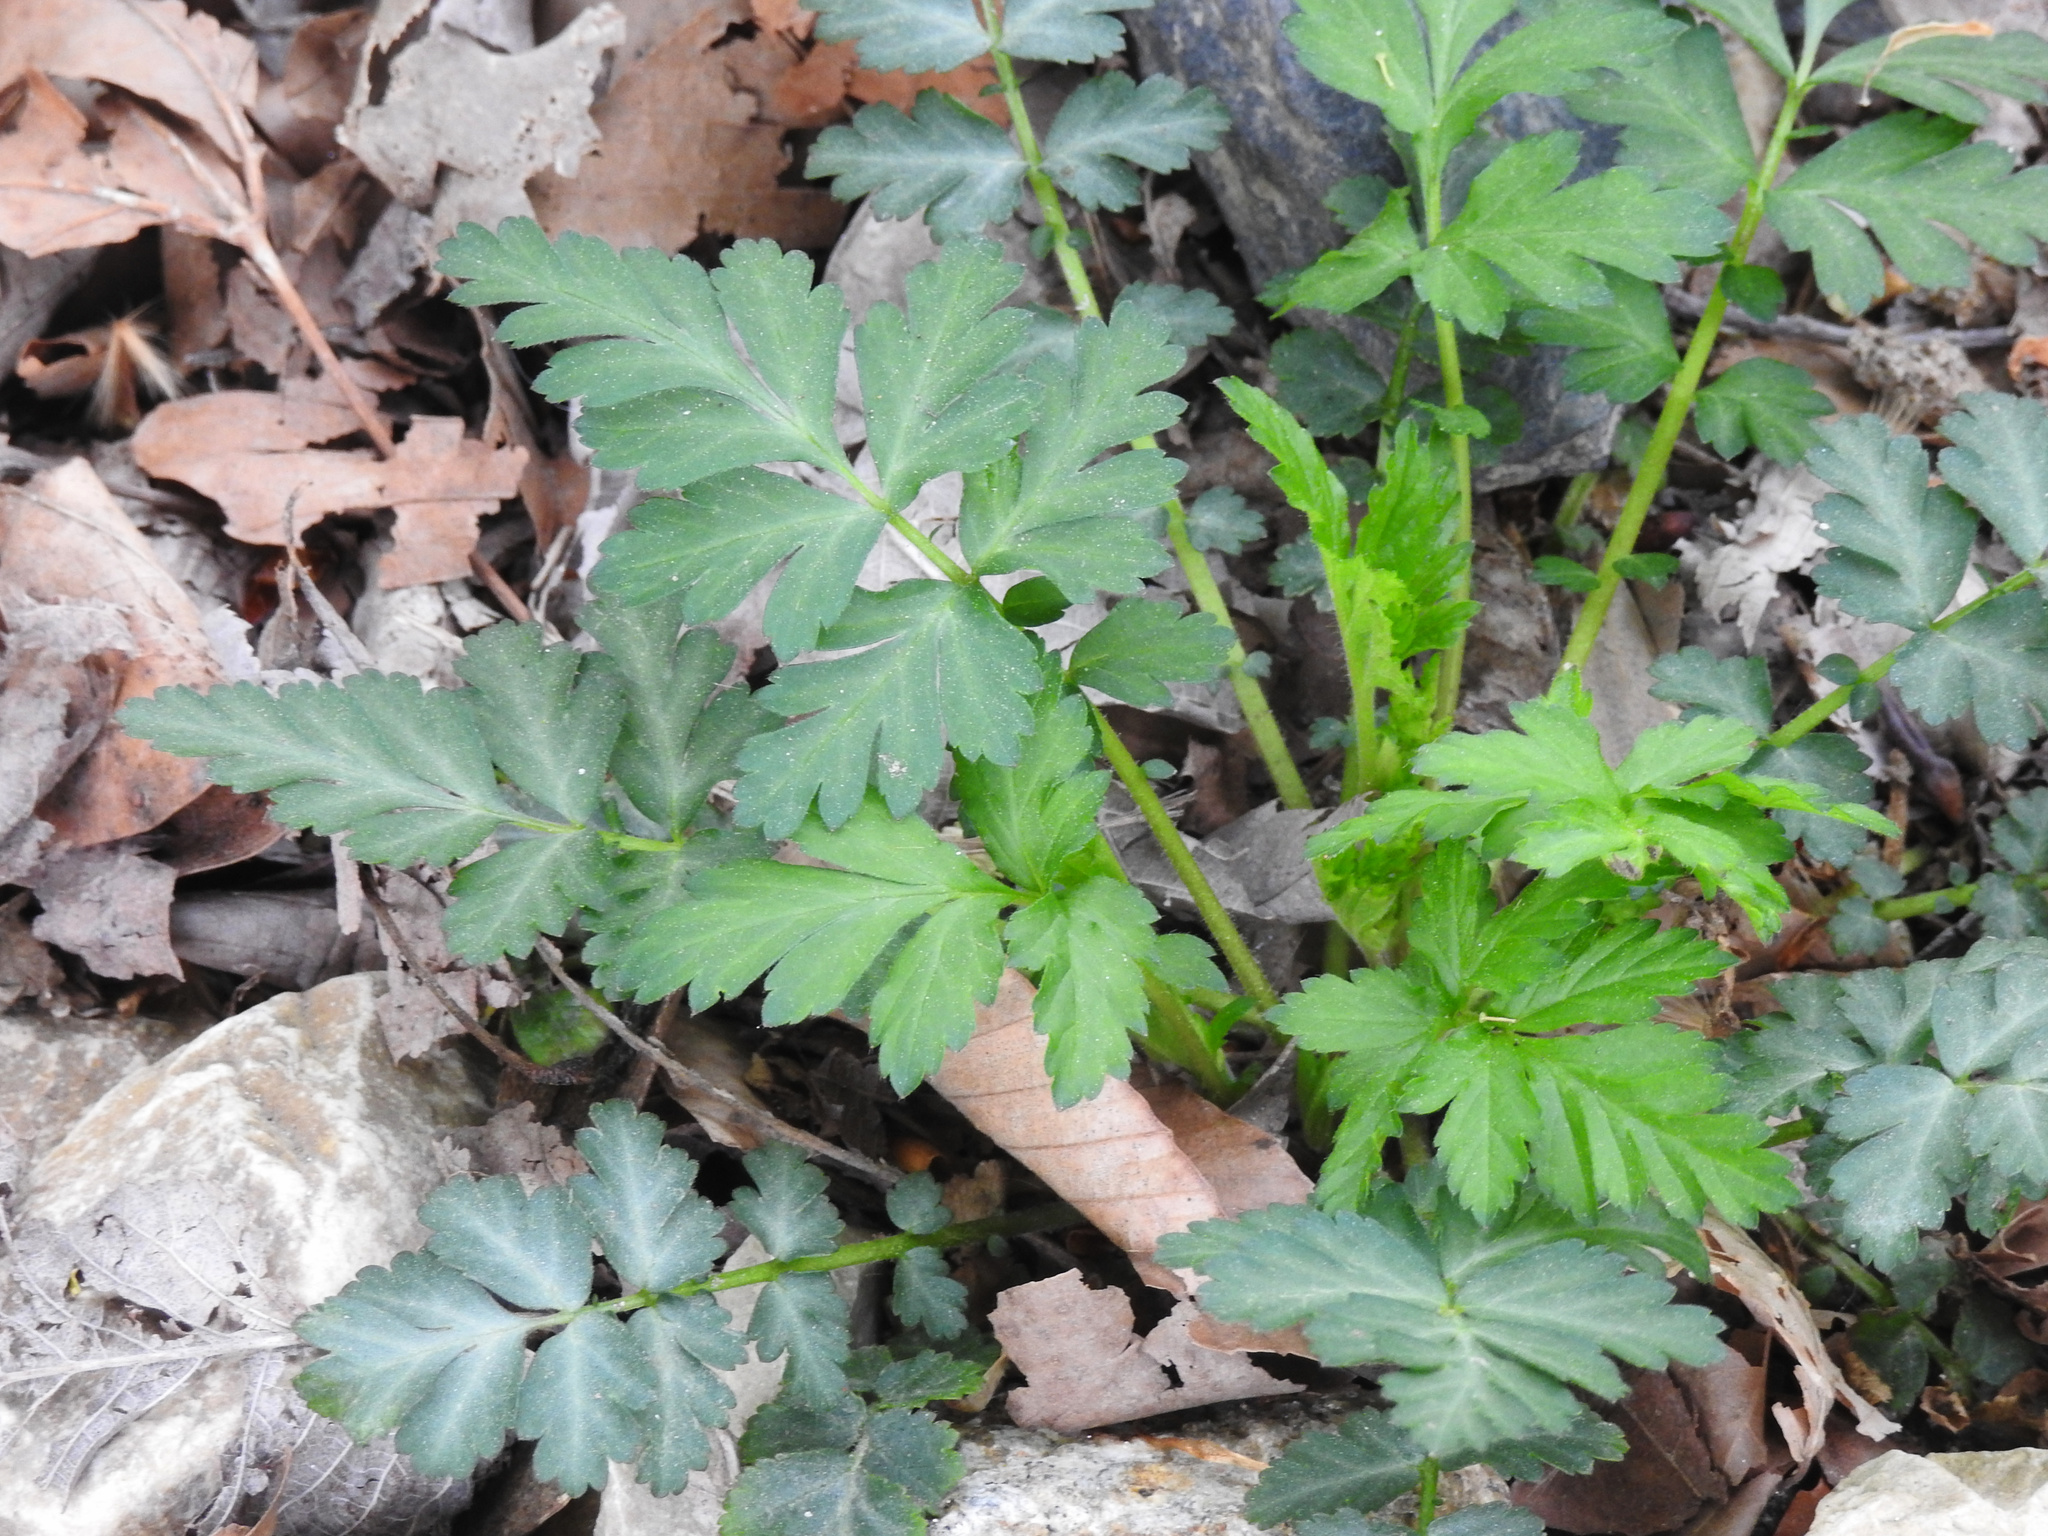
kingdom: Plantae
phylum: Tracheophyta
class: Magnoliopsida
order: Rosales
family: Rosaceae
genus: Geum
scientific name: Geum canadense
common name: White avens
